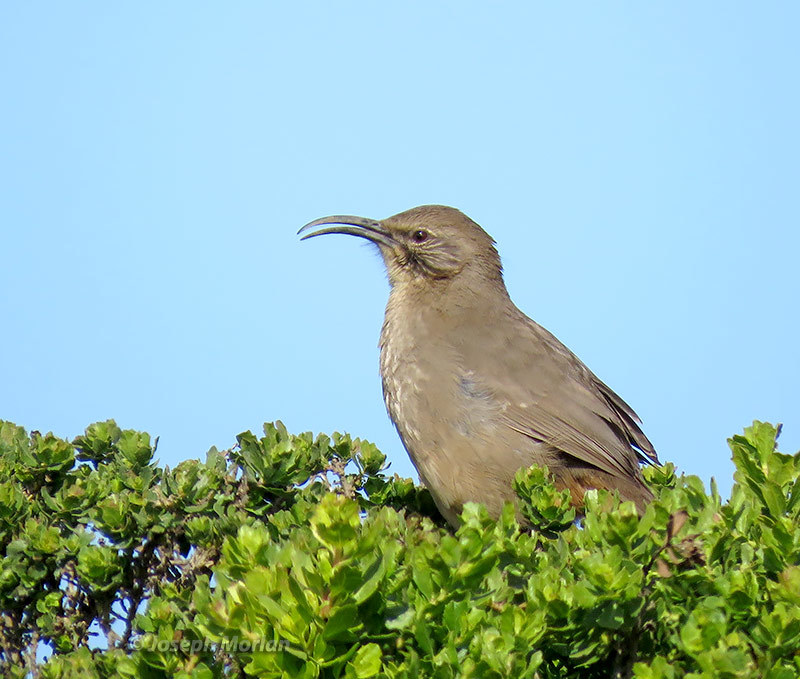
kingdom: Animalia
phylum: Chordata
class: Aves
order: Passeriformes
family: Mimidae
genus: Toxostoma
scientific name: Toxostoma redivivum
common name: California thrasher
